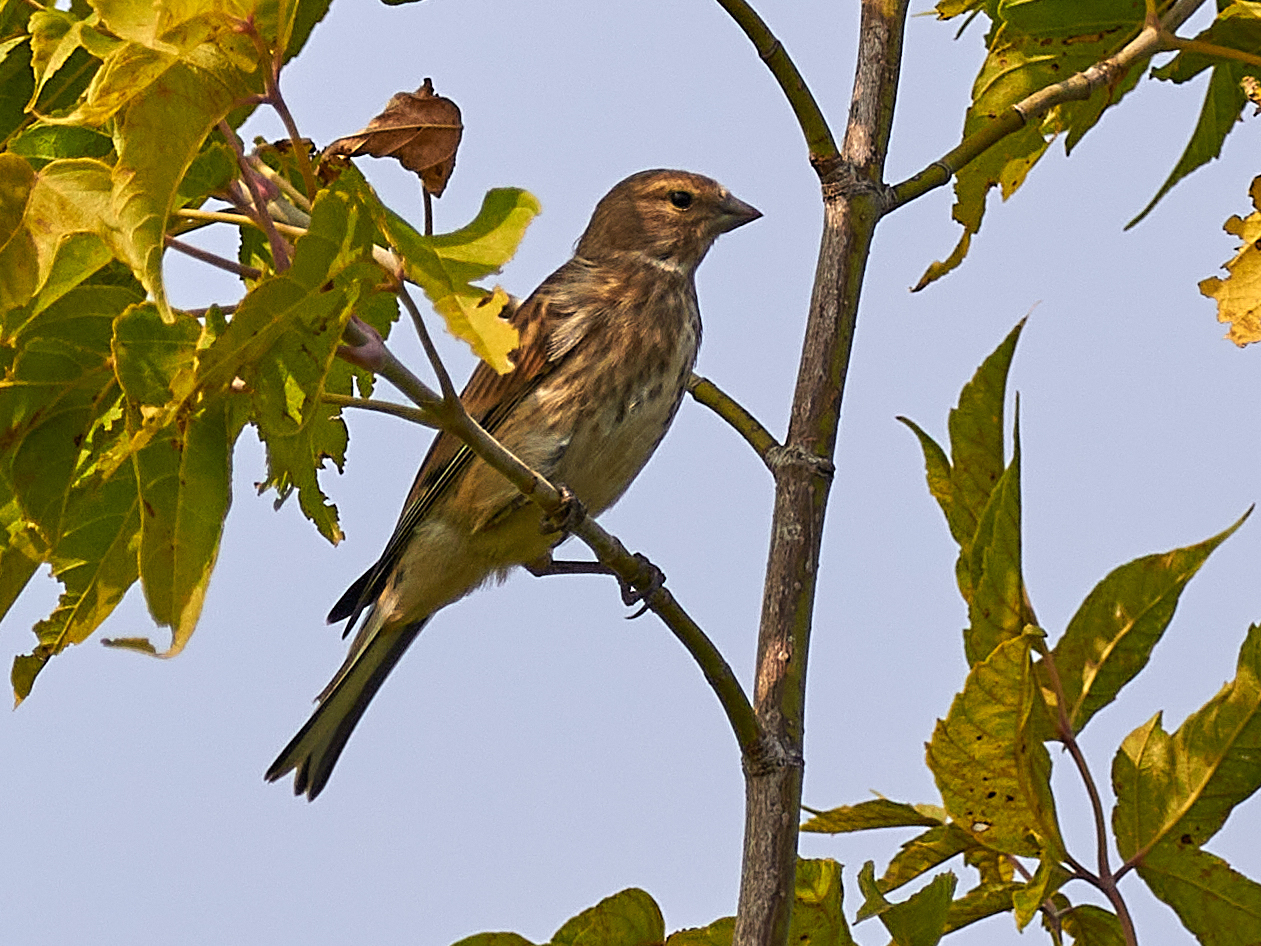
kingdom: Animalia
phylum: Chordata
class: Aves
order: Passeriformes
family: Fringillidae
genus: Linaria
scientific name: Linaria cannabina
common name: Common linnet
